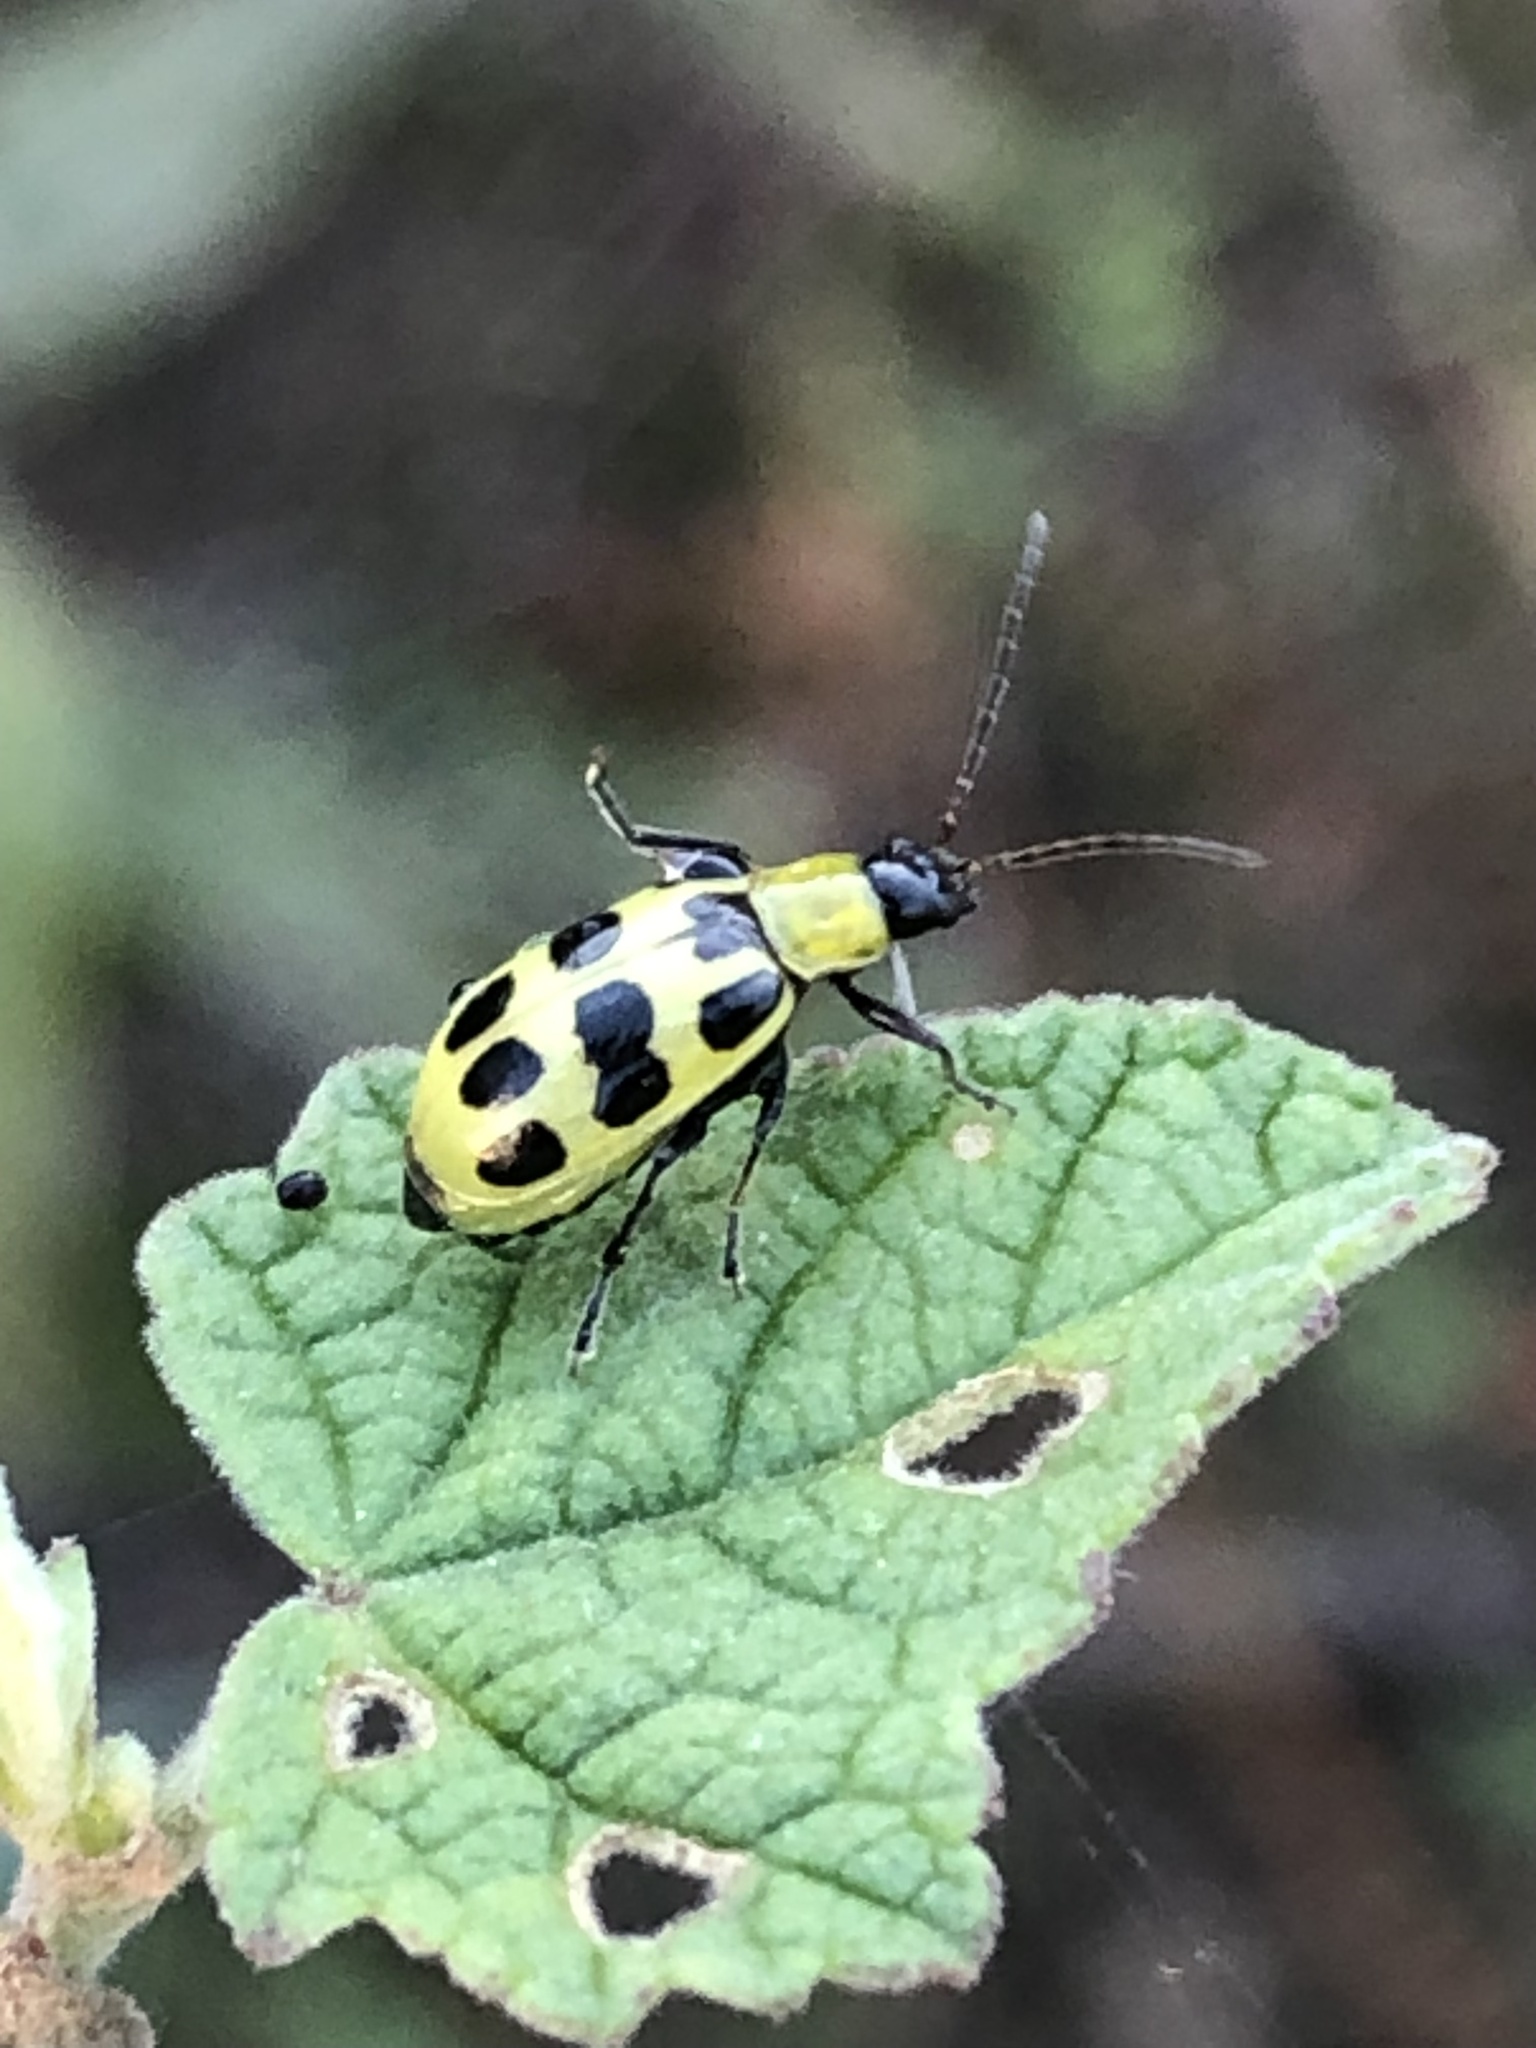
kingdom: Animalia
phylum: Arthropoda
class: Insecta
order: Coleoptera
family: Chrysomelidae
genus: Diabrotica
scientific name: Diabrotica undecimpunctata
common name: Spotted cucumber beetle
